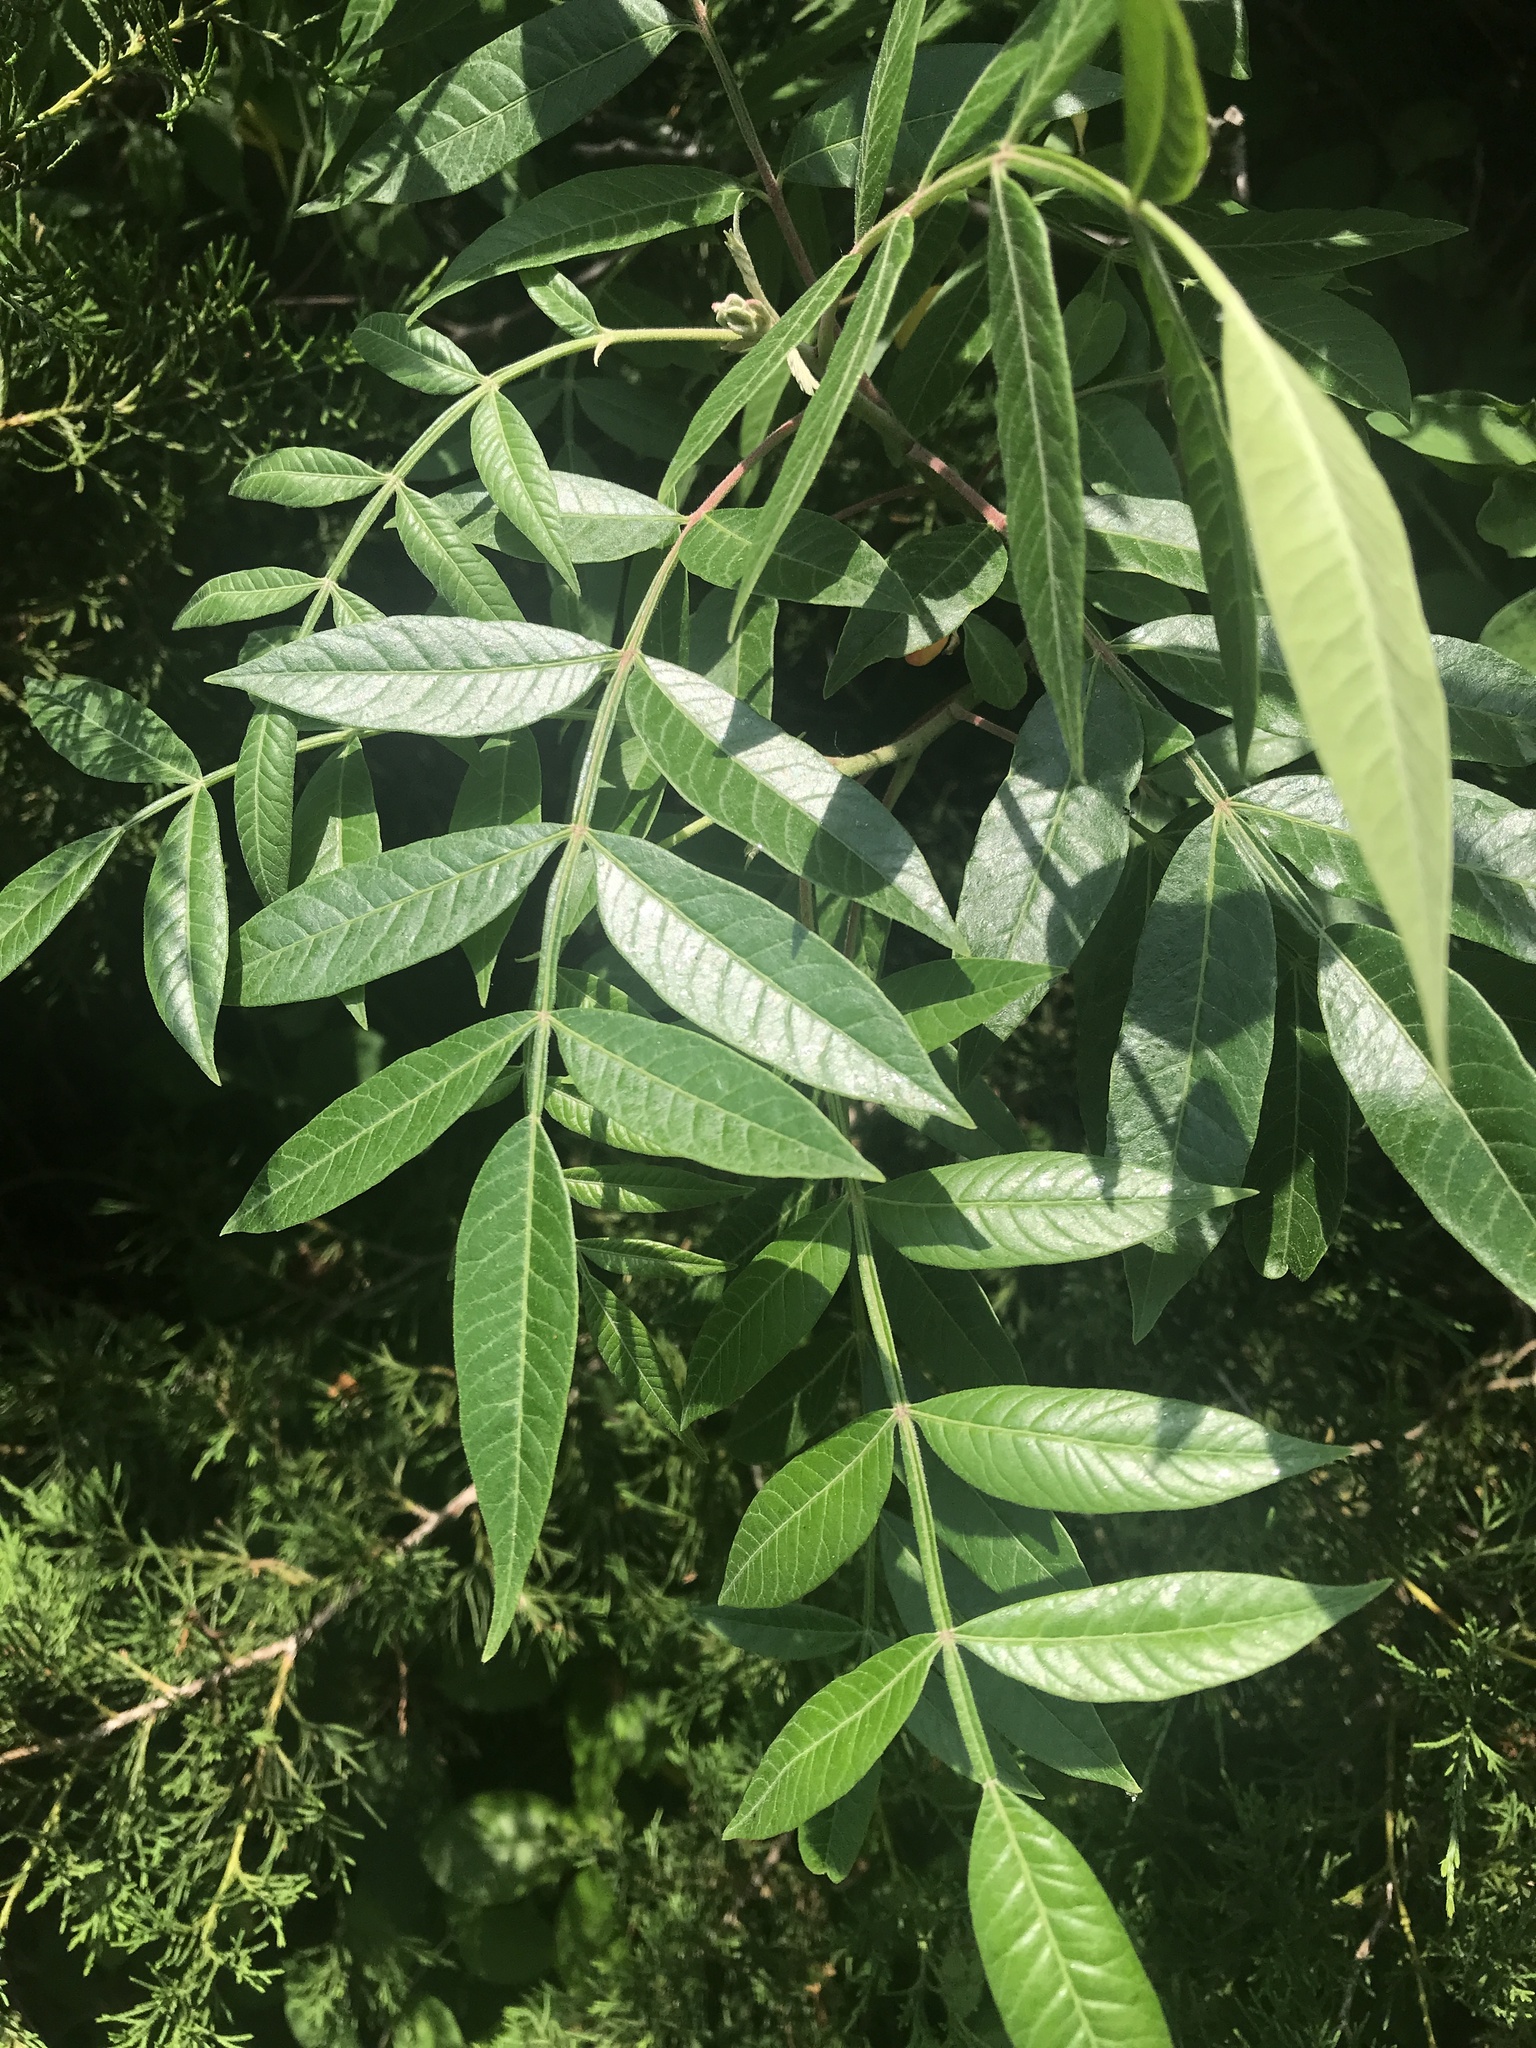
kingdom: Plantae
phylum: Tracheophyta
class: Magnoliopsida
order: Sapindales
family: Anacardiaceae
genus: Rhus
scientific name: Rhus copallina
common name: Shining sumac
